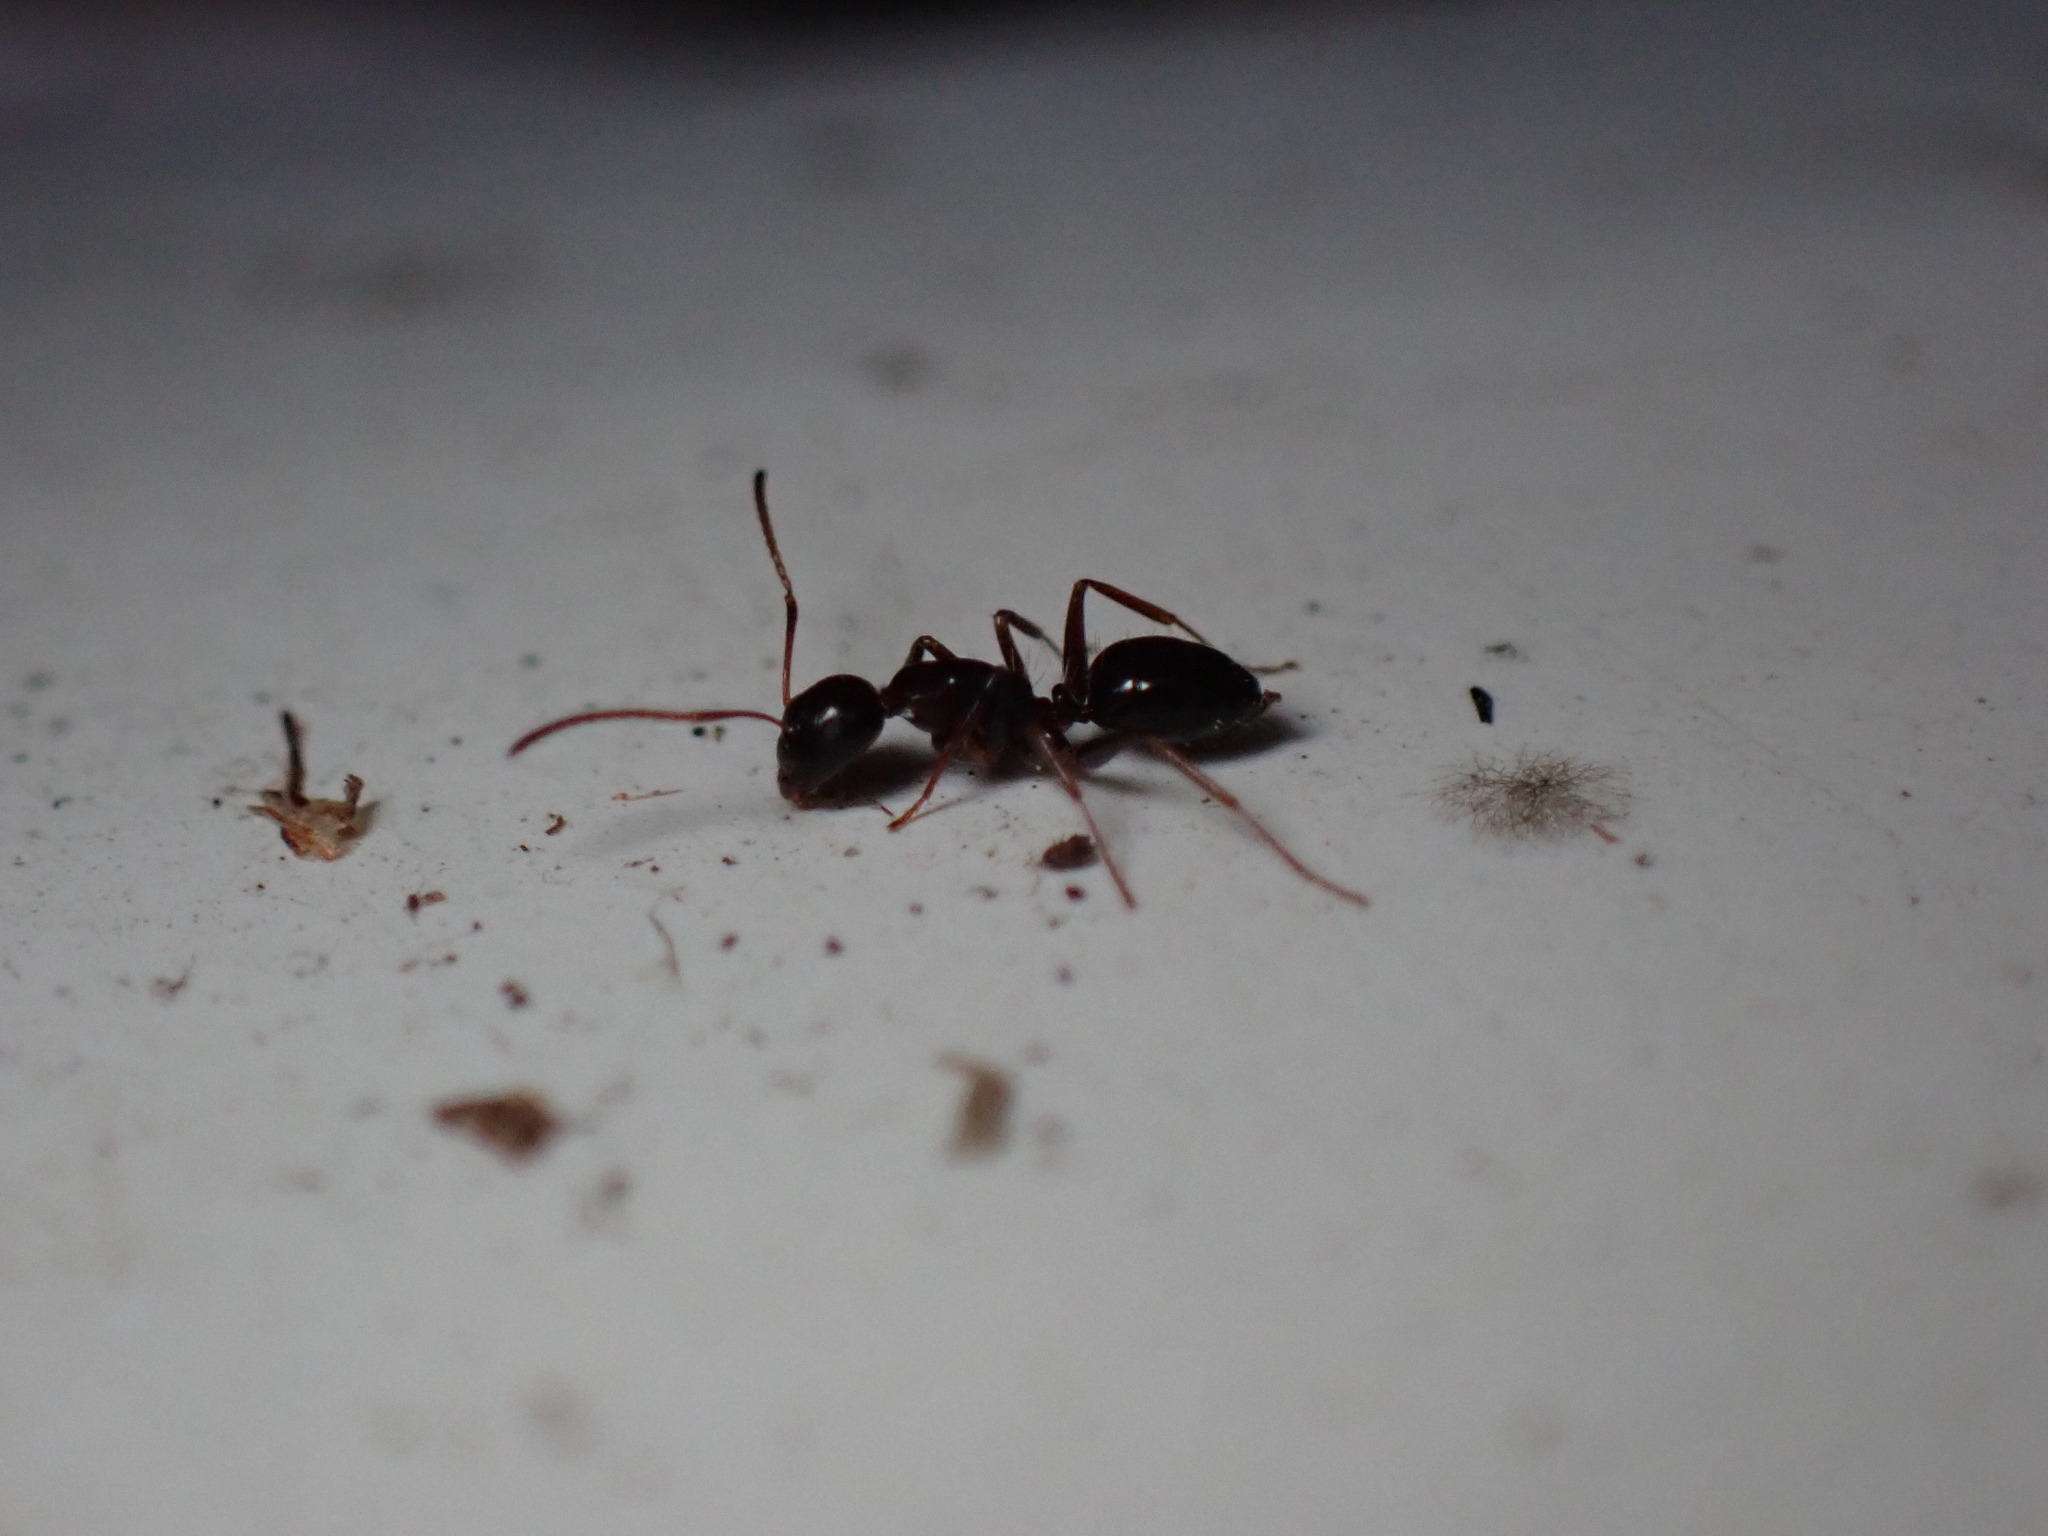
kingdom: Animalia
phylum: Arthropoda
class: Insecta
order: Hymenoptera
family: Formicidae
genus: Camponotus
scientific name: Camponotus vitiosus
